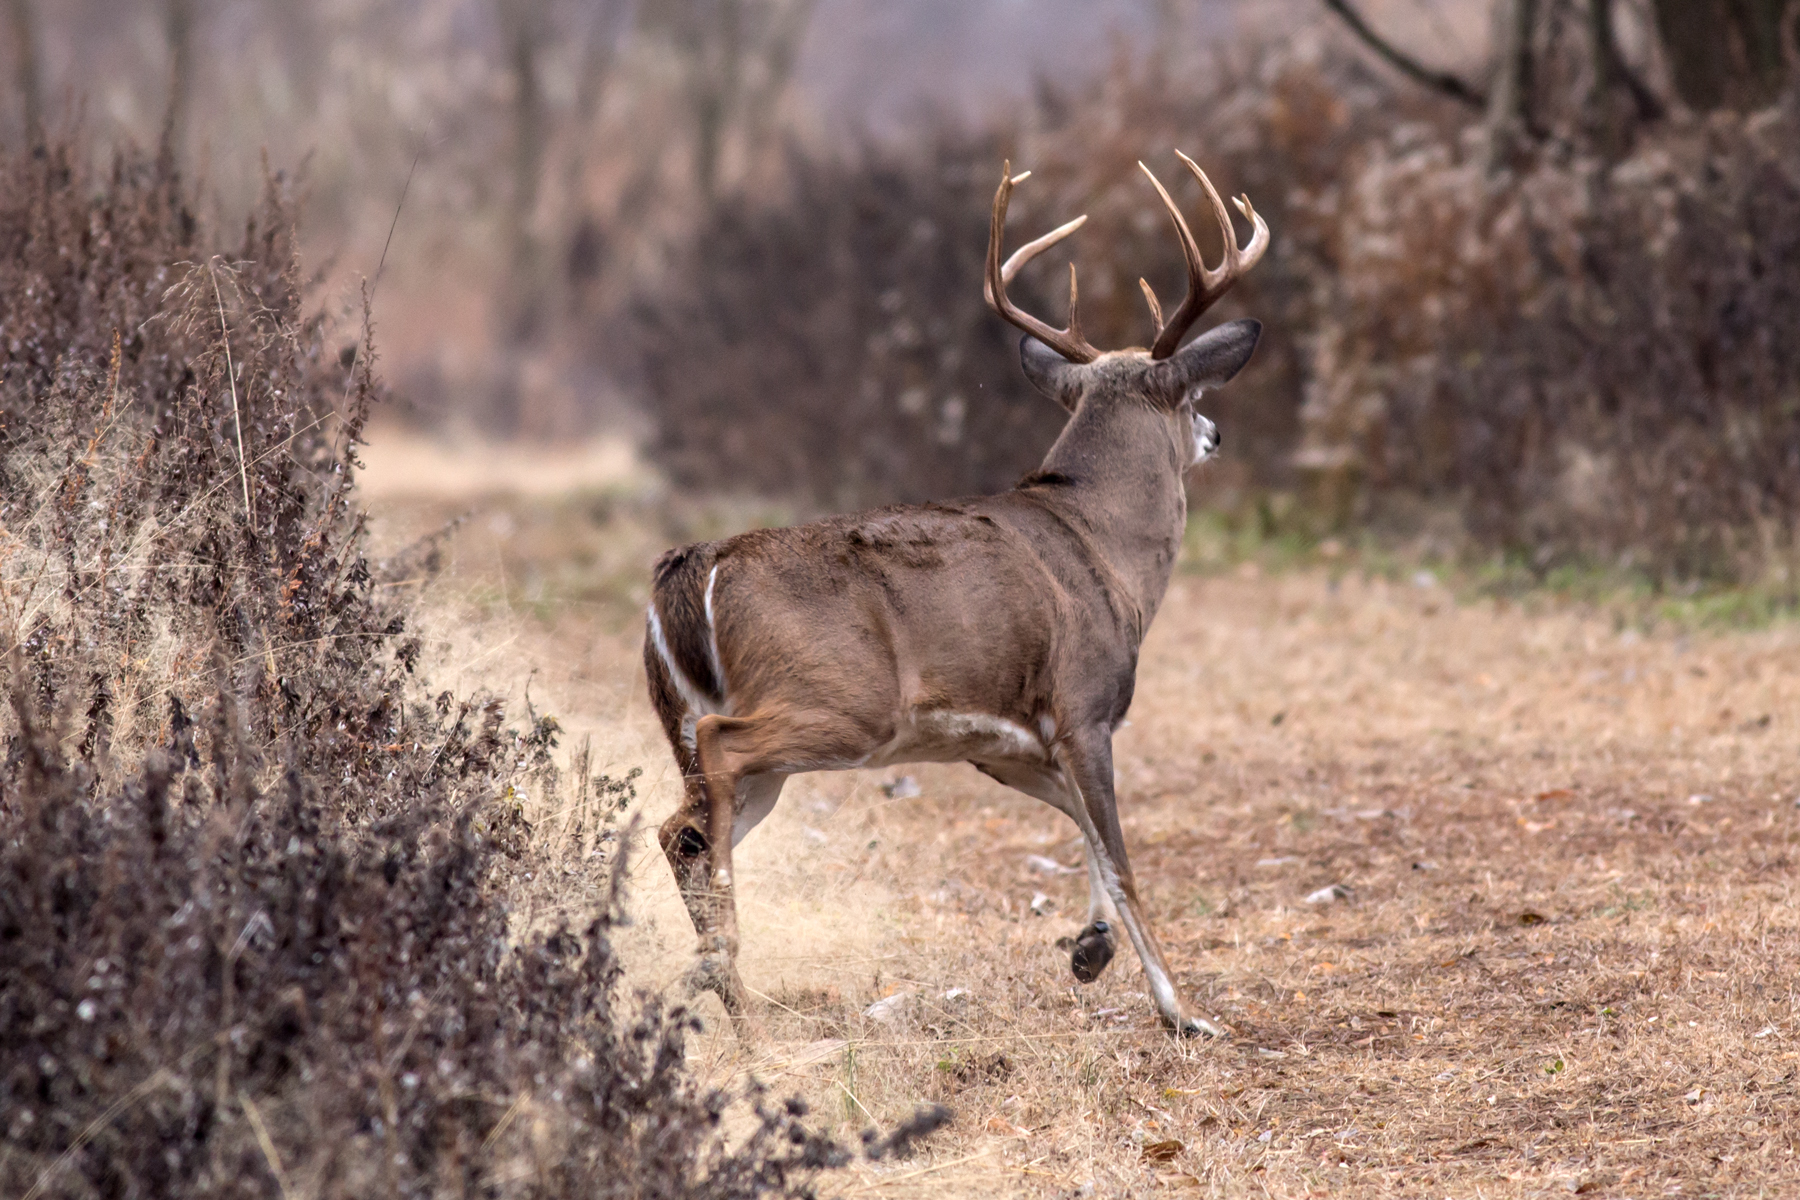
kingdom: Animalia
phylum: Chordata
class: Mammalia
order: Artiodactyla
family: Cervidae
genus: Odocoileus
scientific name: Odocoileus virginianus
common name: White-tailed deer
